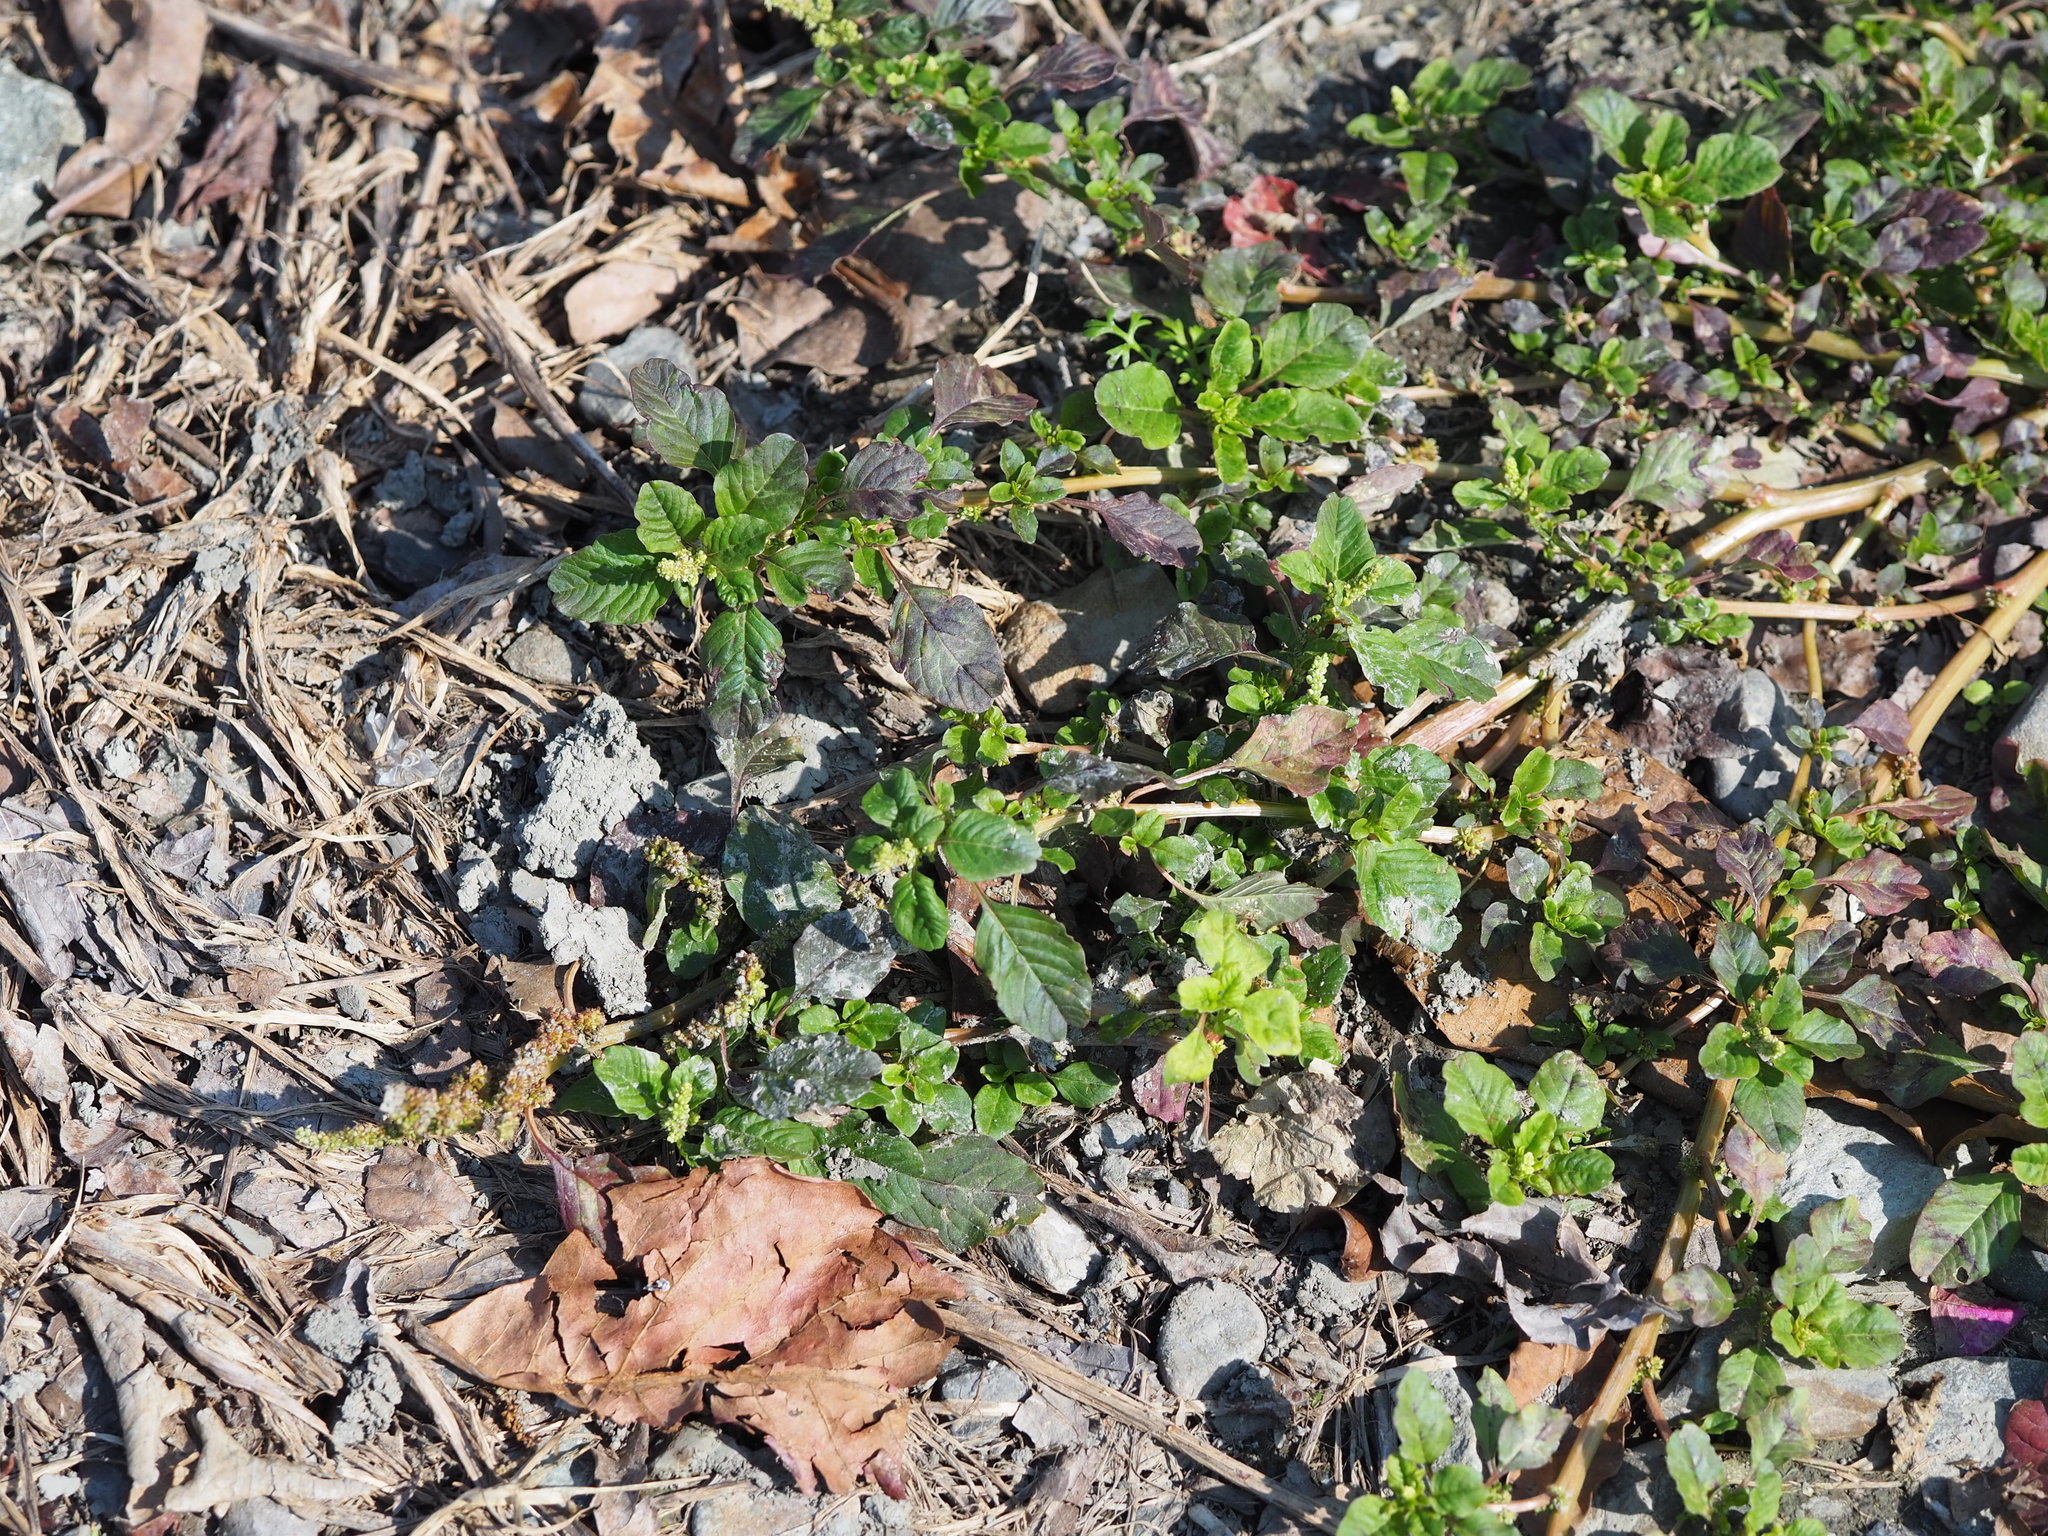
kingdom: Plantae
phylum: Tracheophyta
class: Magnoliopsida
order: Caryophyllales
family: Amaranthaceae
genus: Amaranthus
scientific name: Amaranthus blitum
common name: Purple amaranth
